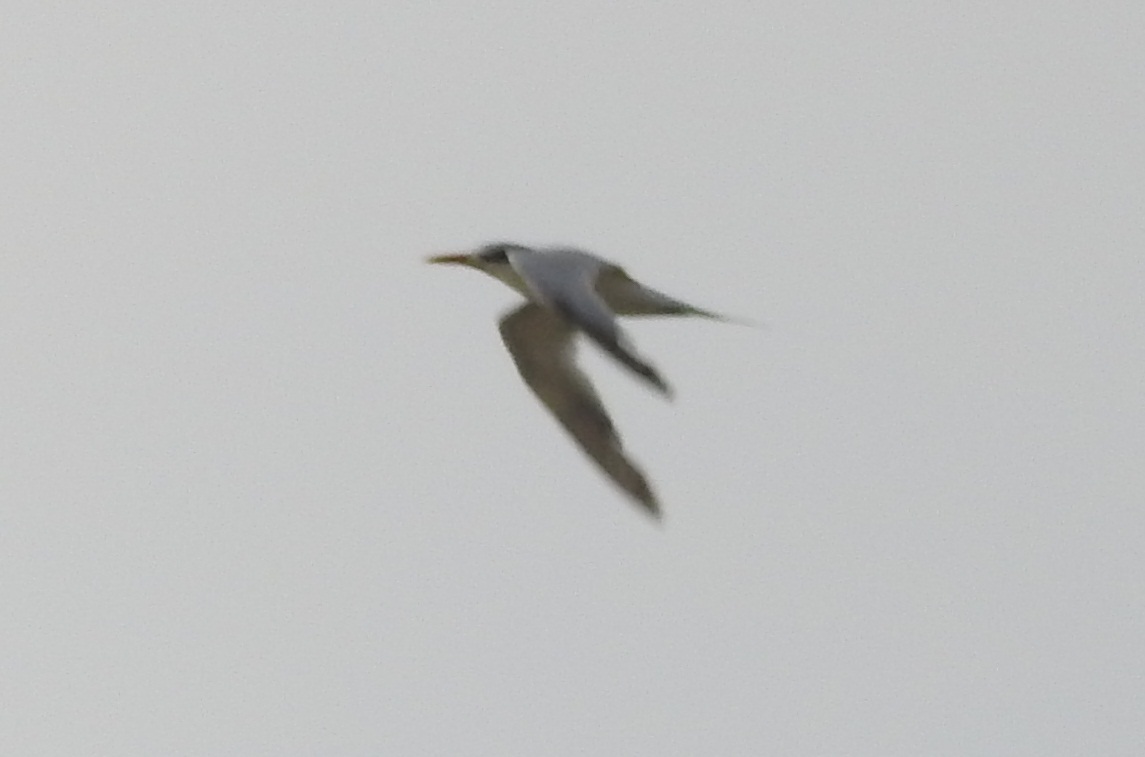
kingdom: Animalia
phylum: Chordata
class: Aves
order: Charadriiformes
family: Laridae
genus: Thalasseus
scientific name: Thalasseus maximus
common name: Royal tern
